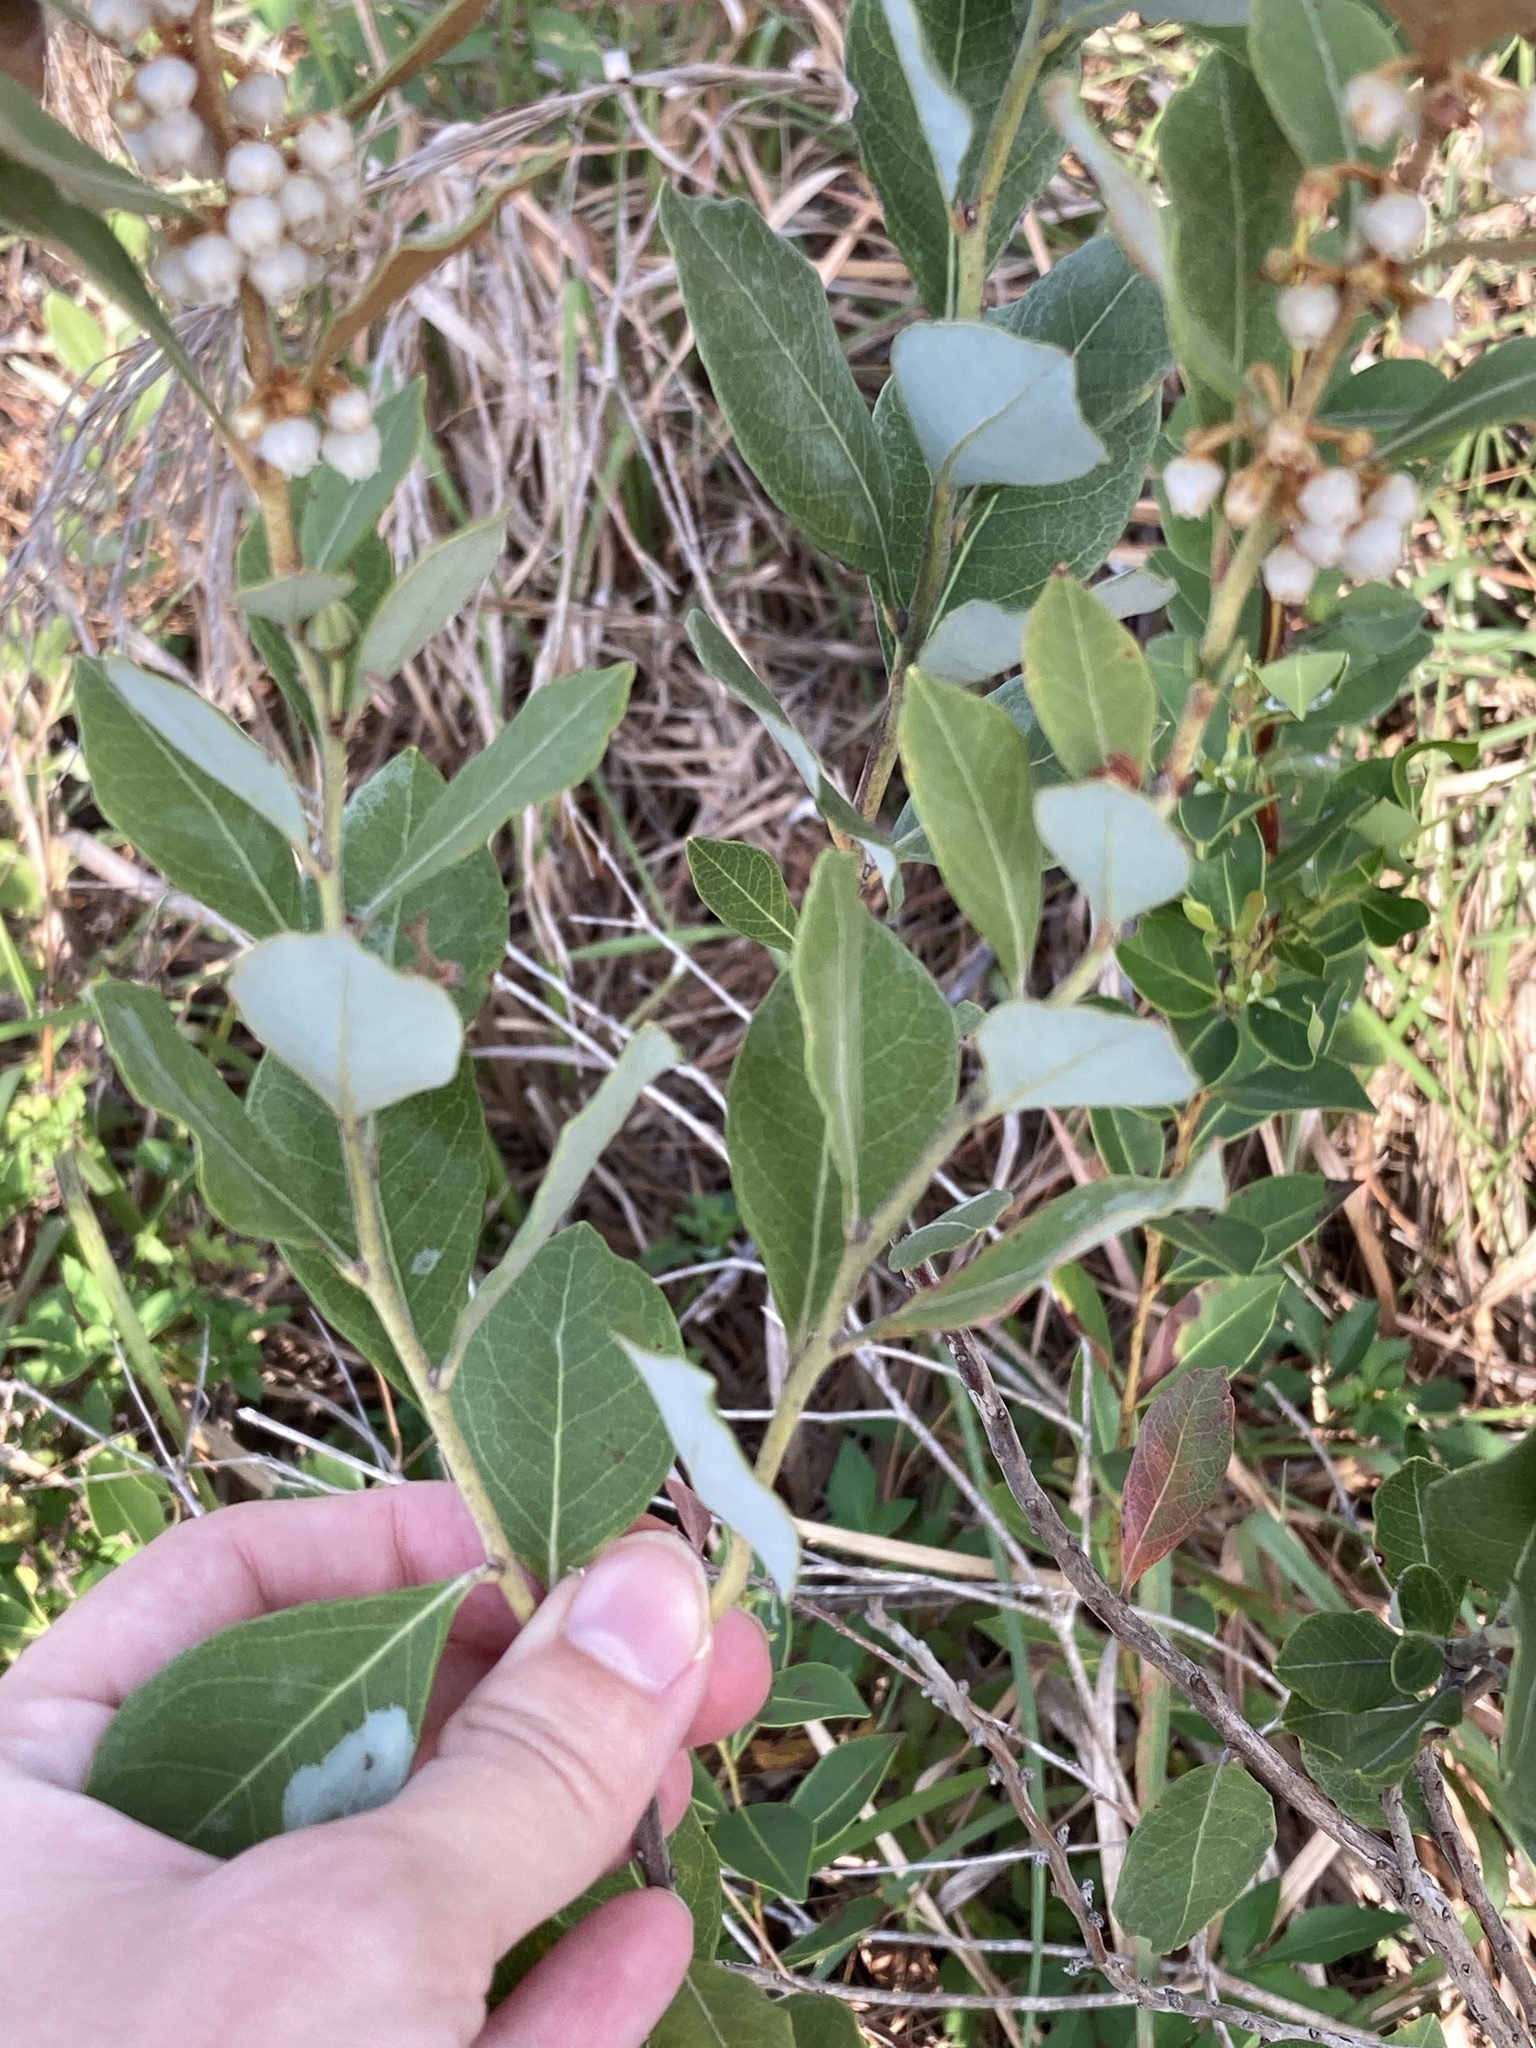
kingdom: Plantae
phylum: Tracheophyta
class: Magnoliopsida
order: Ericales
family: Ericaceae
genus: Lyonia
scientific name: Lyonia fruticosa
